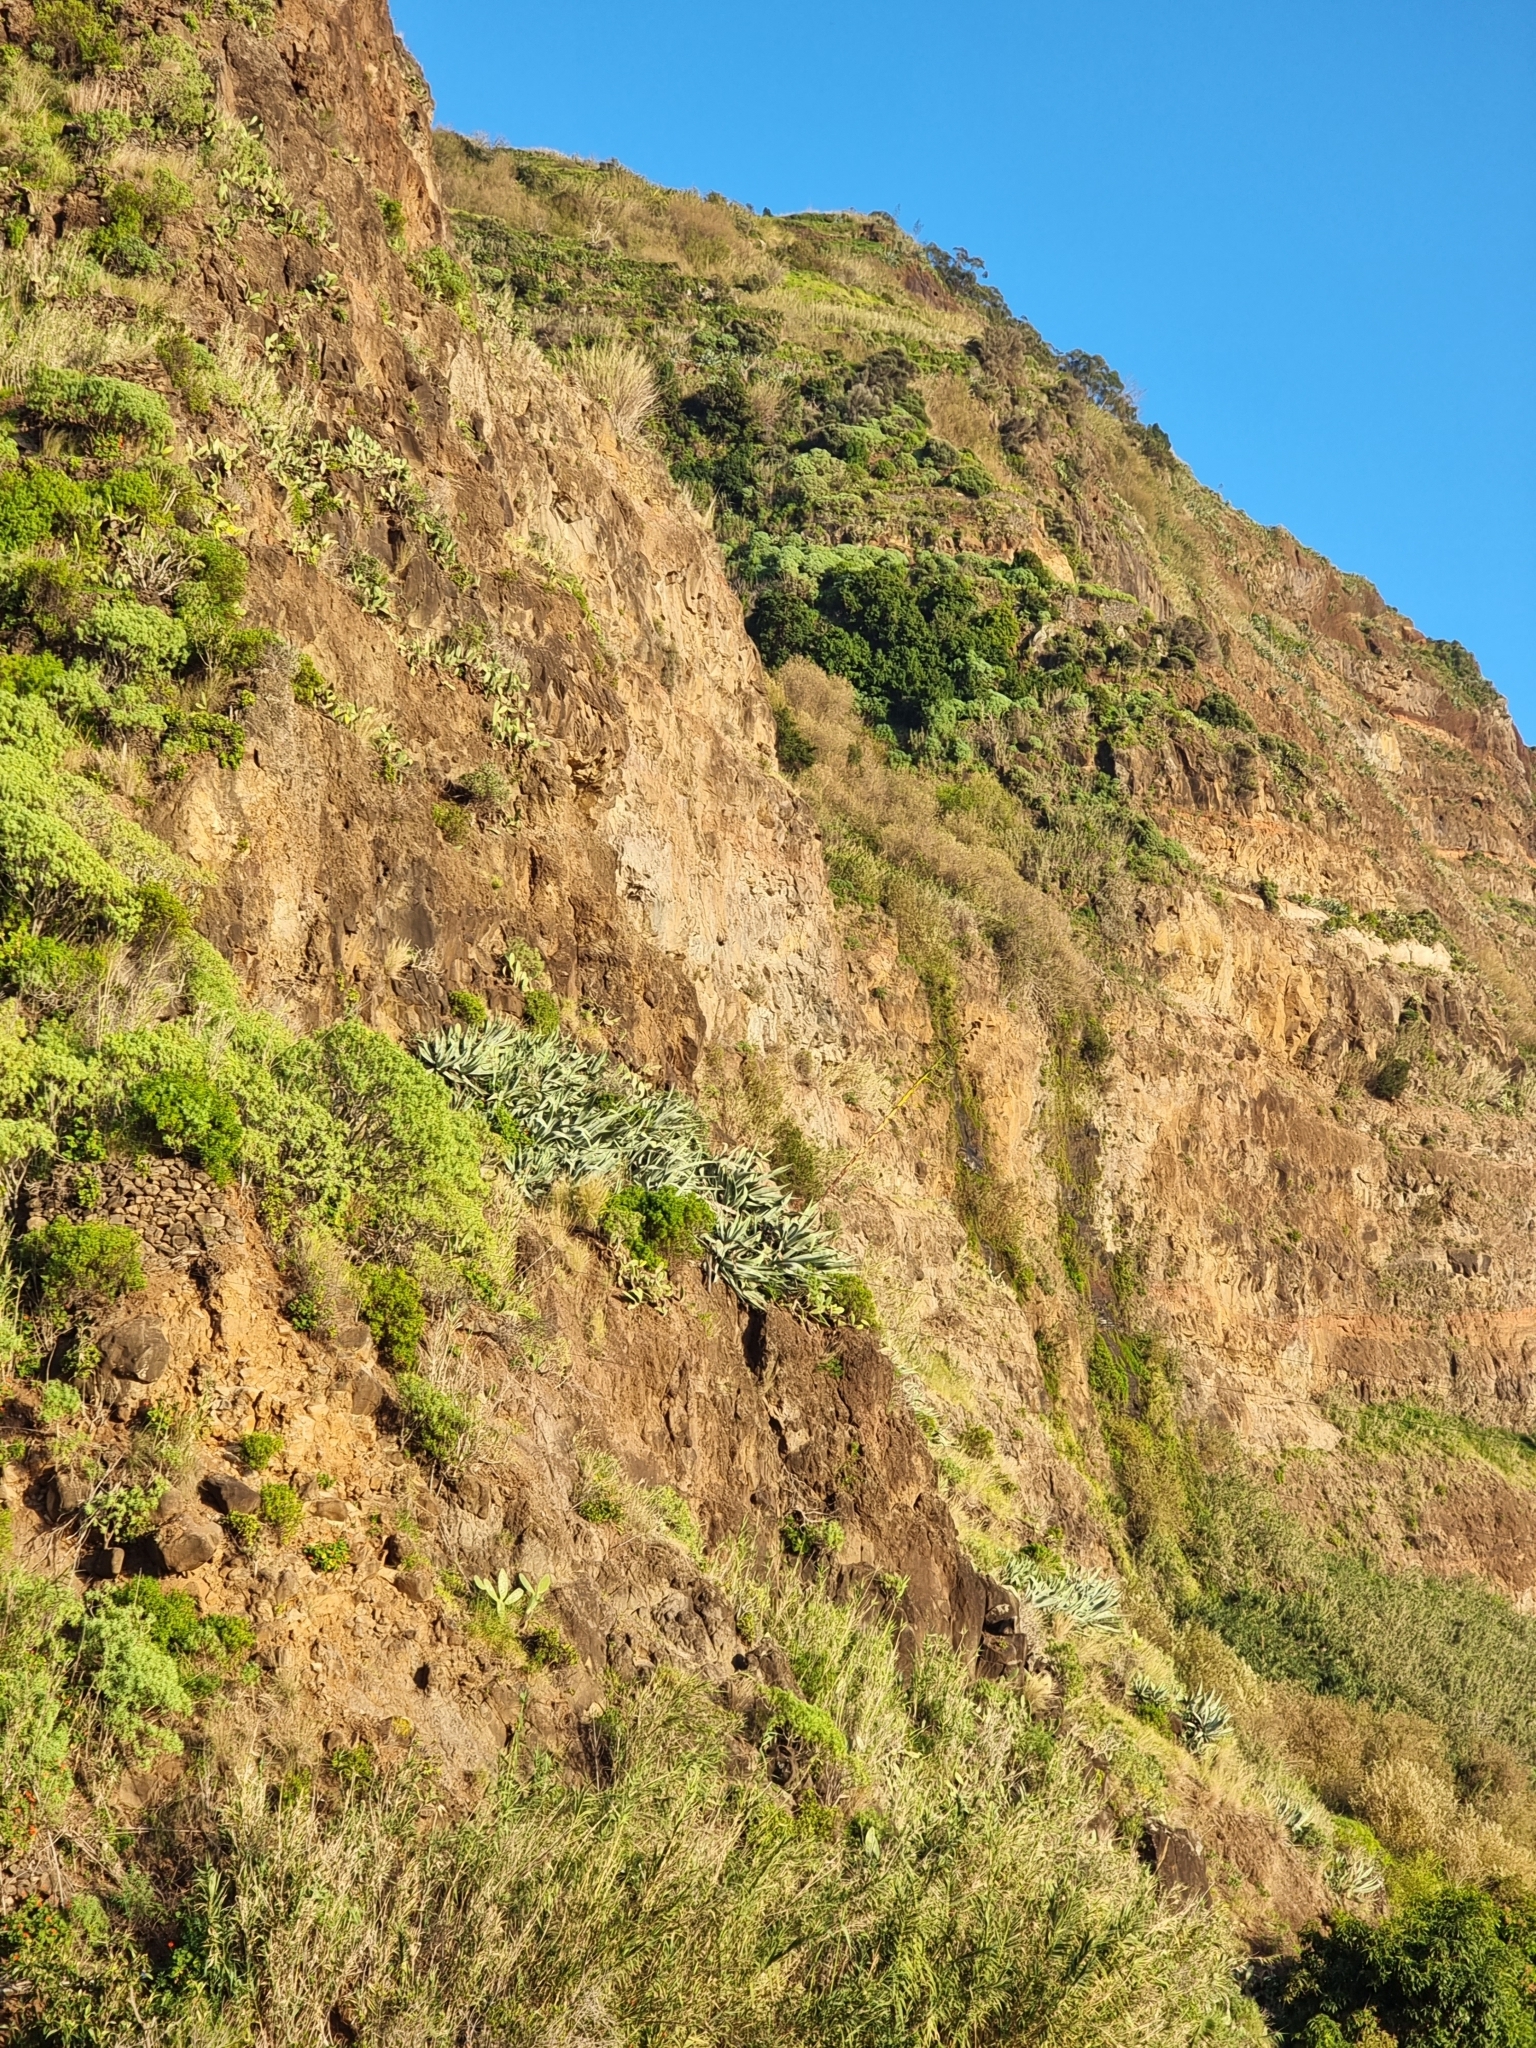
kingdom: Plantae
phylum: Tracheophyta
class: Liliopsida
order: Asparagales
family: Asparagaceae
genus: Agave
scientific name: Agave americana
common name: Centuryplant
